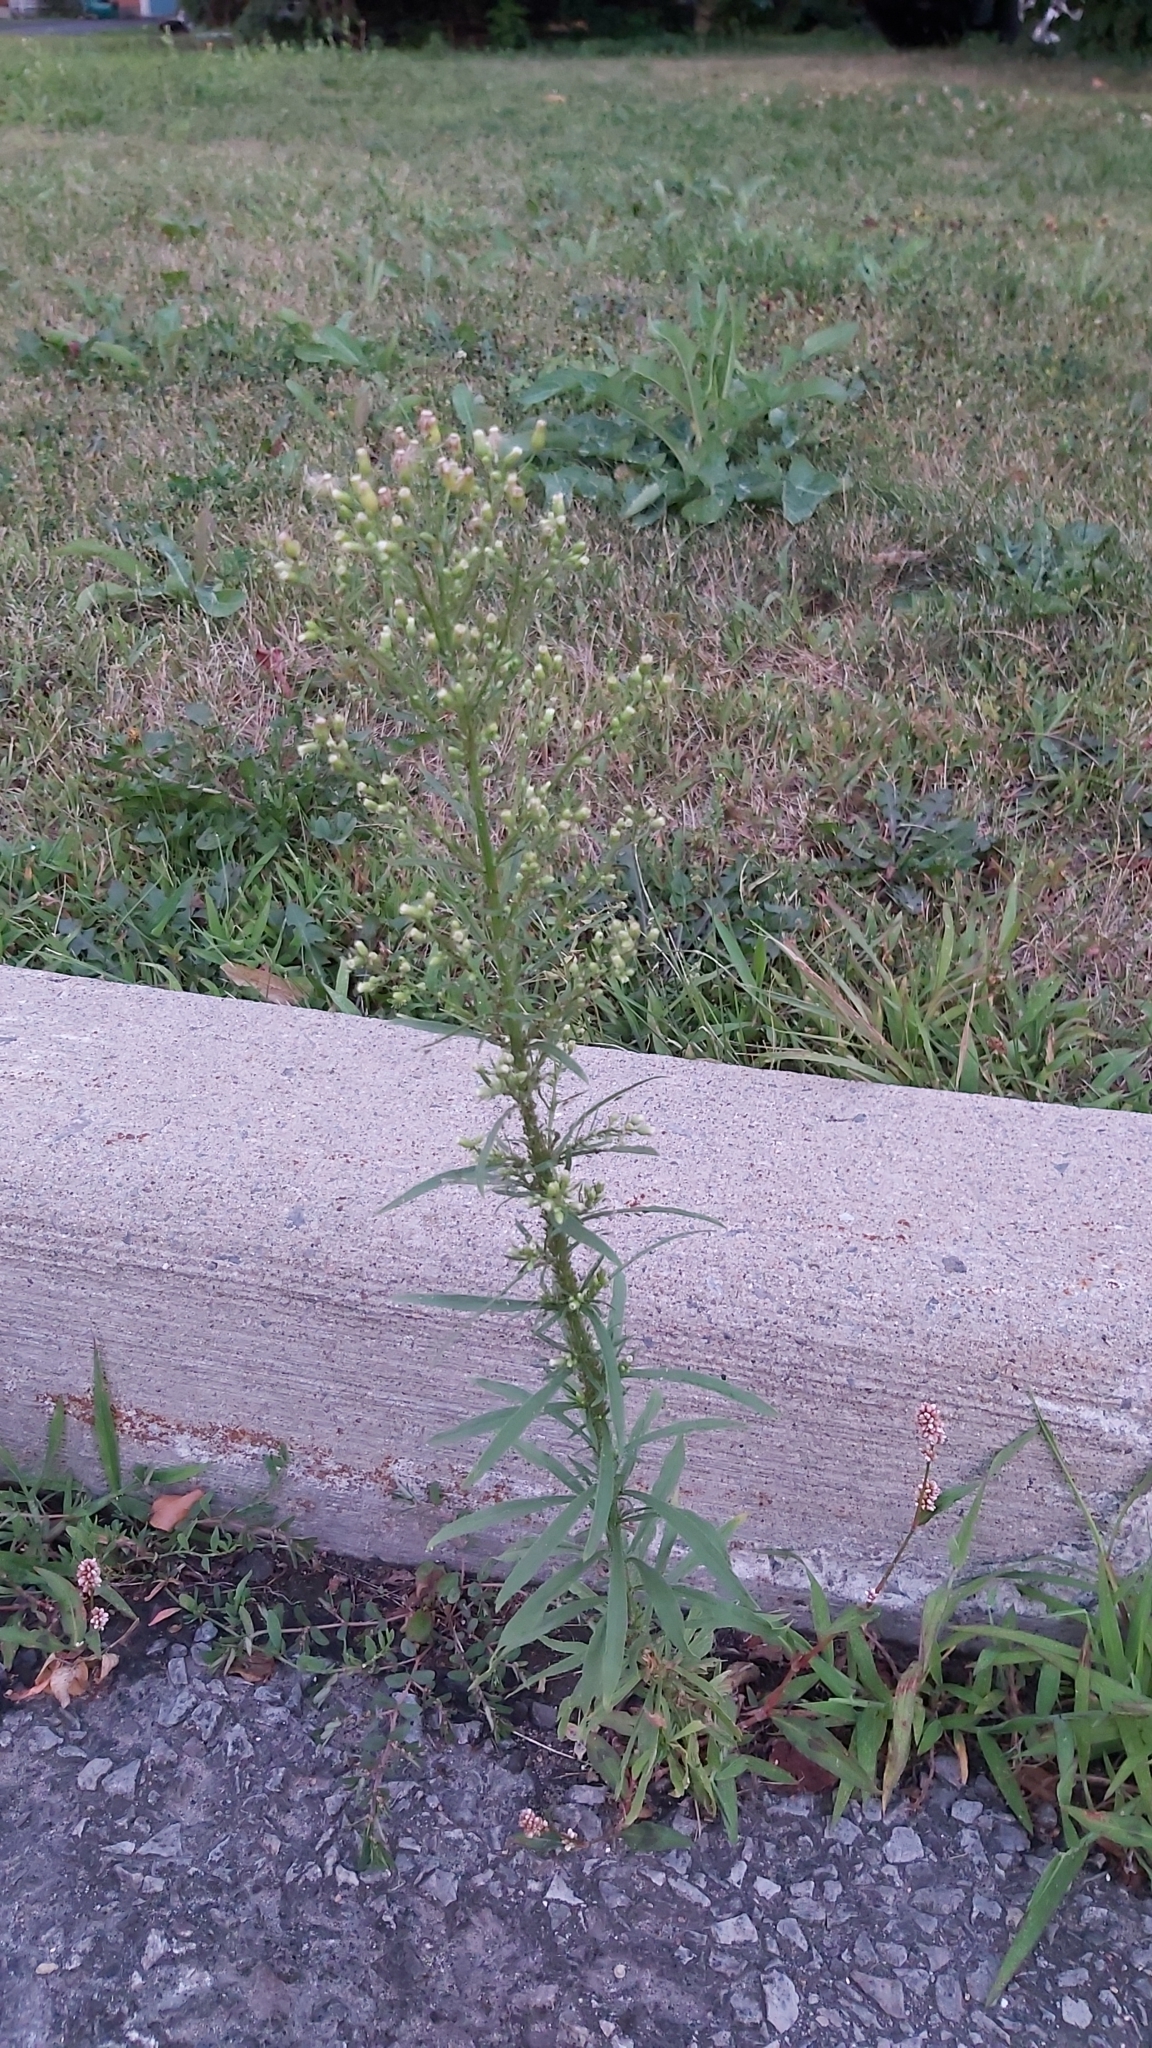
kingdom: Plantae
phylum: Tracheophyta
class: Magnoliopsida
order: Asterales
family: Asteraceae
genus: Erigeron
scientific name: Erigeron canadensis
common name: Canadian fleabane
